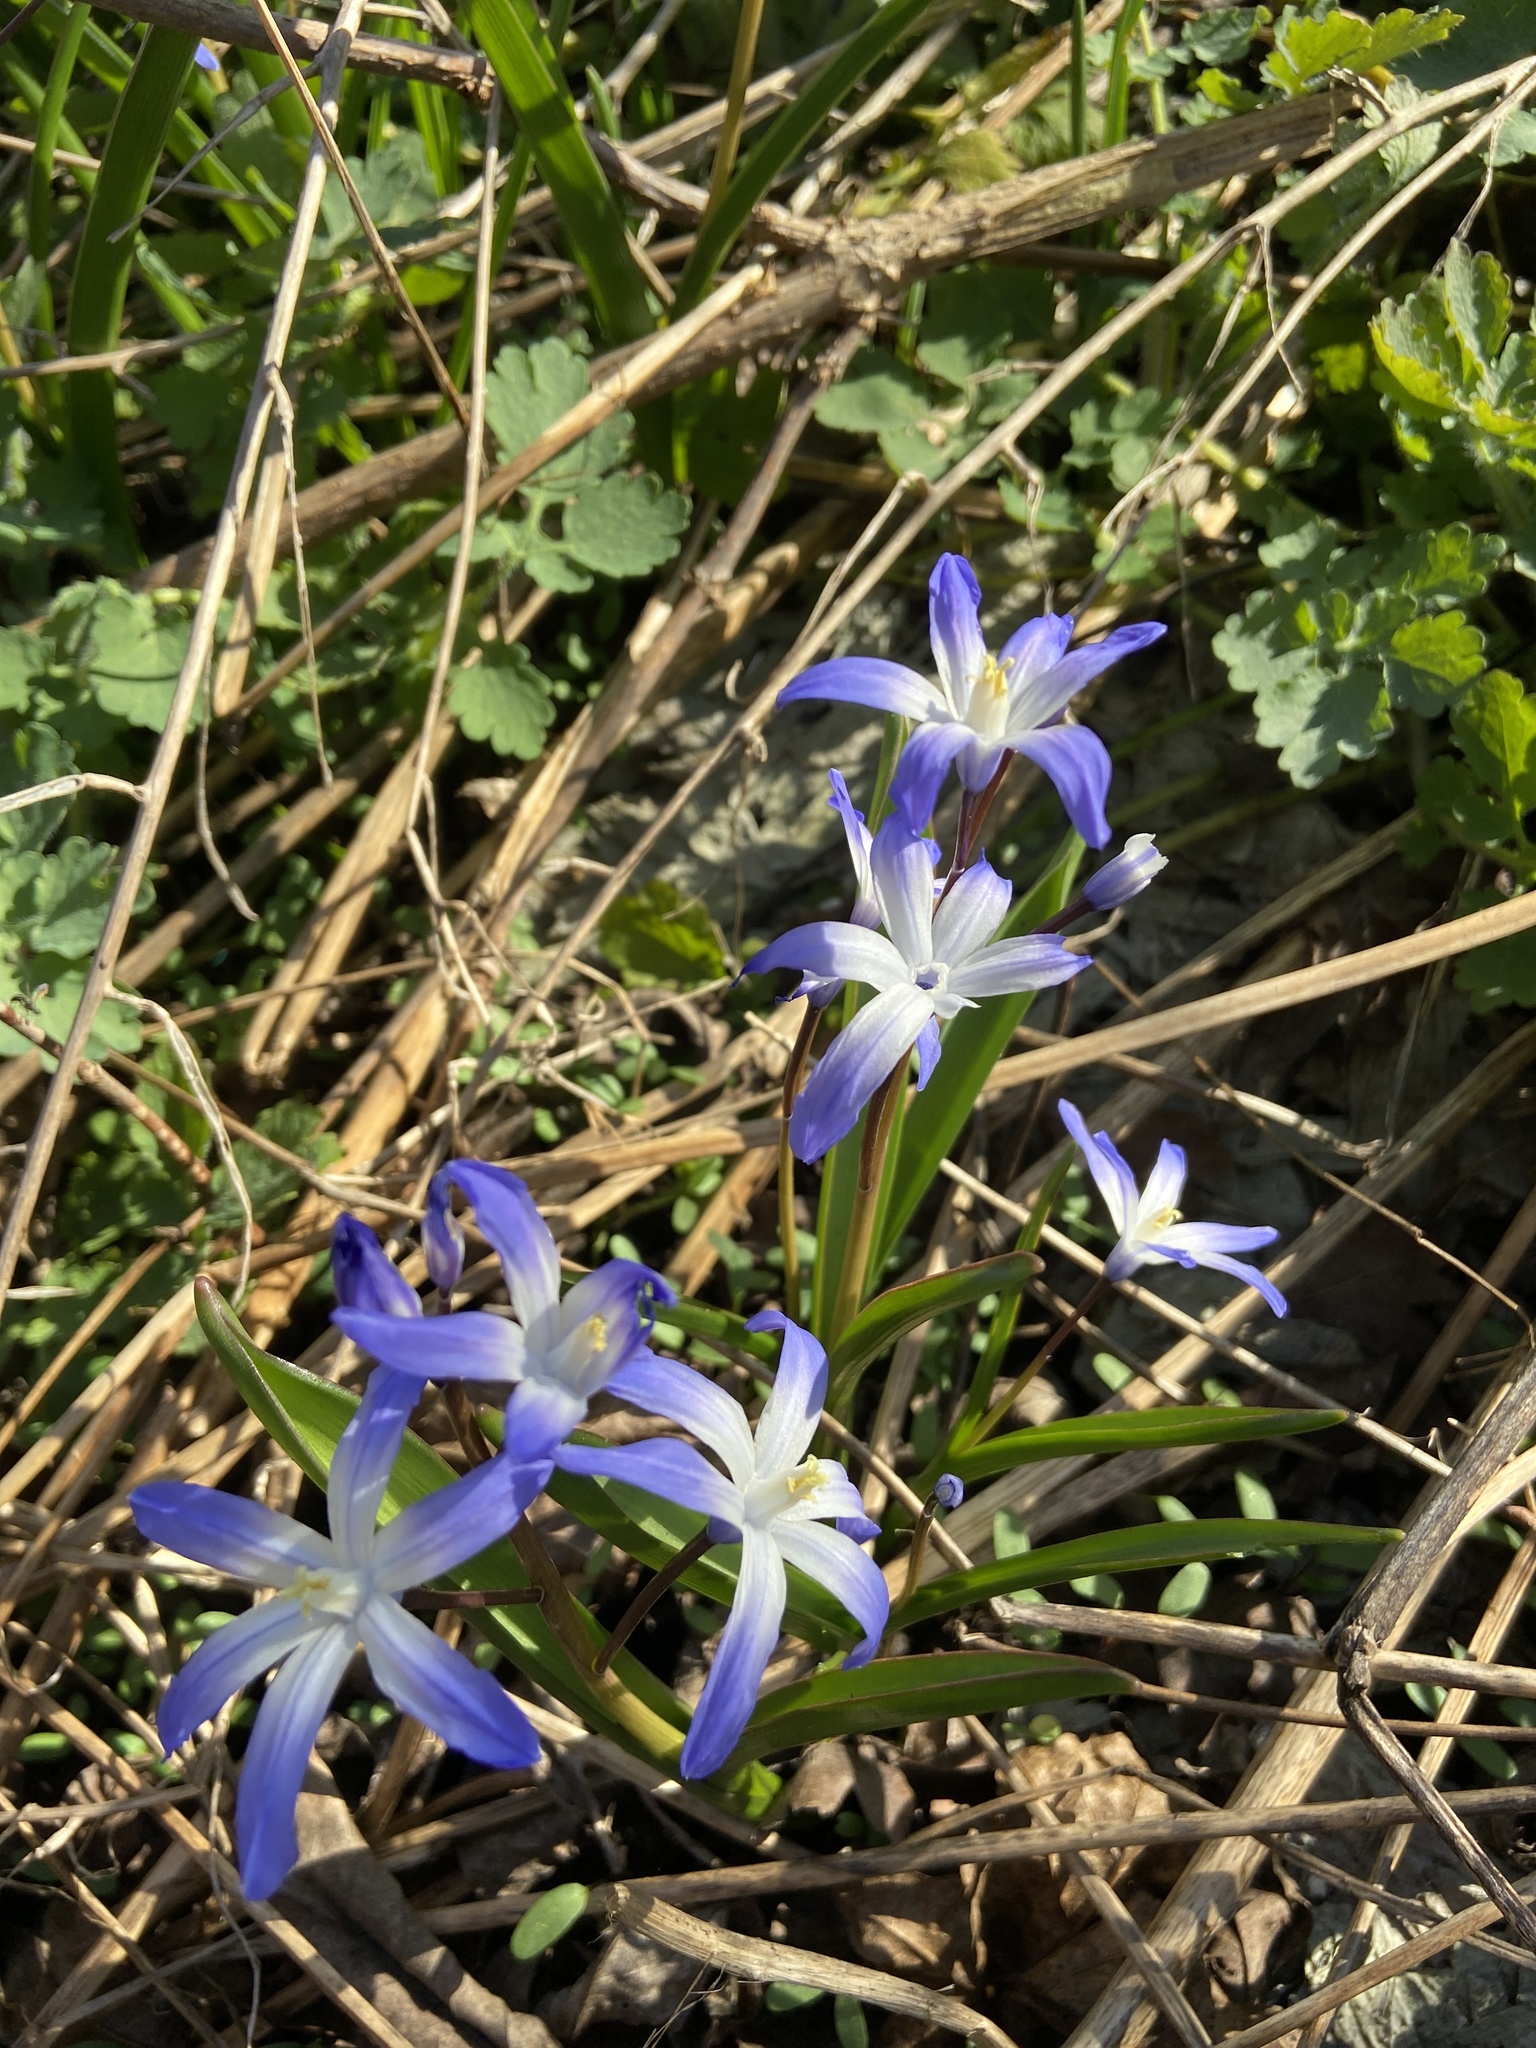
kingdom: Plantae
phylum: Tracheophyta
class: Liliopsida
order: Asparagales
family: Asparagaceae
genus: Scilla
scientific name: Scilla luciliae
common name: Boissier's glory-of-the-snow
